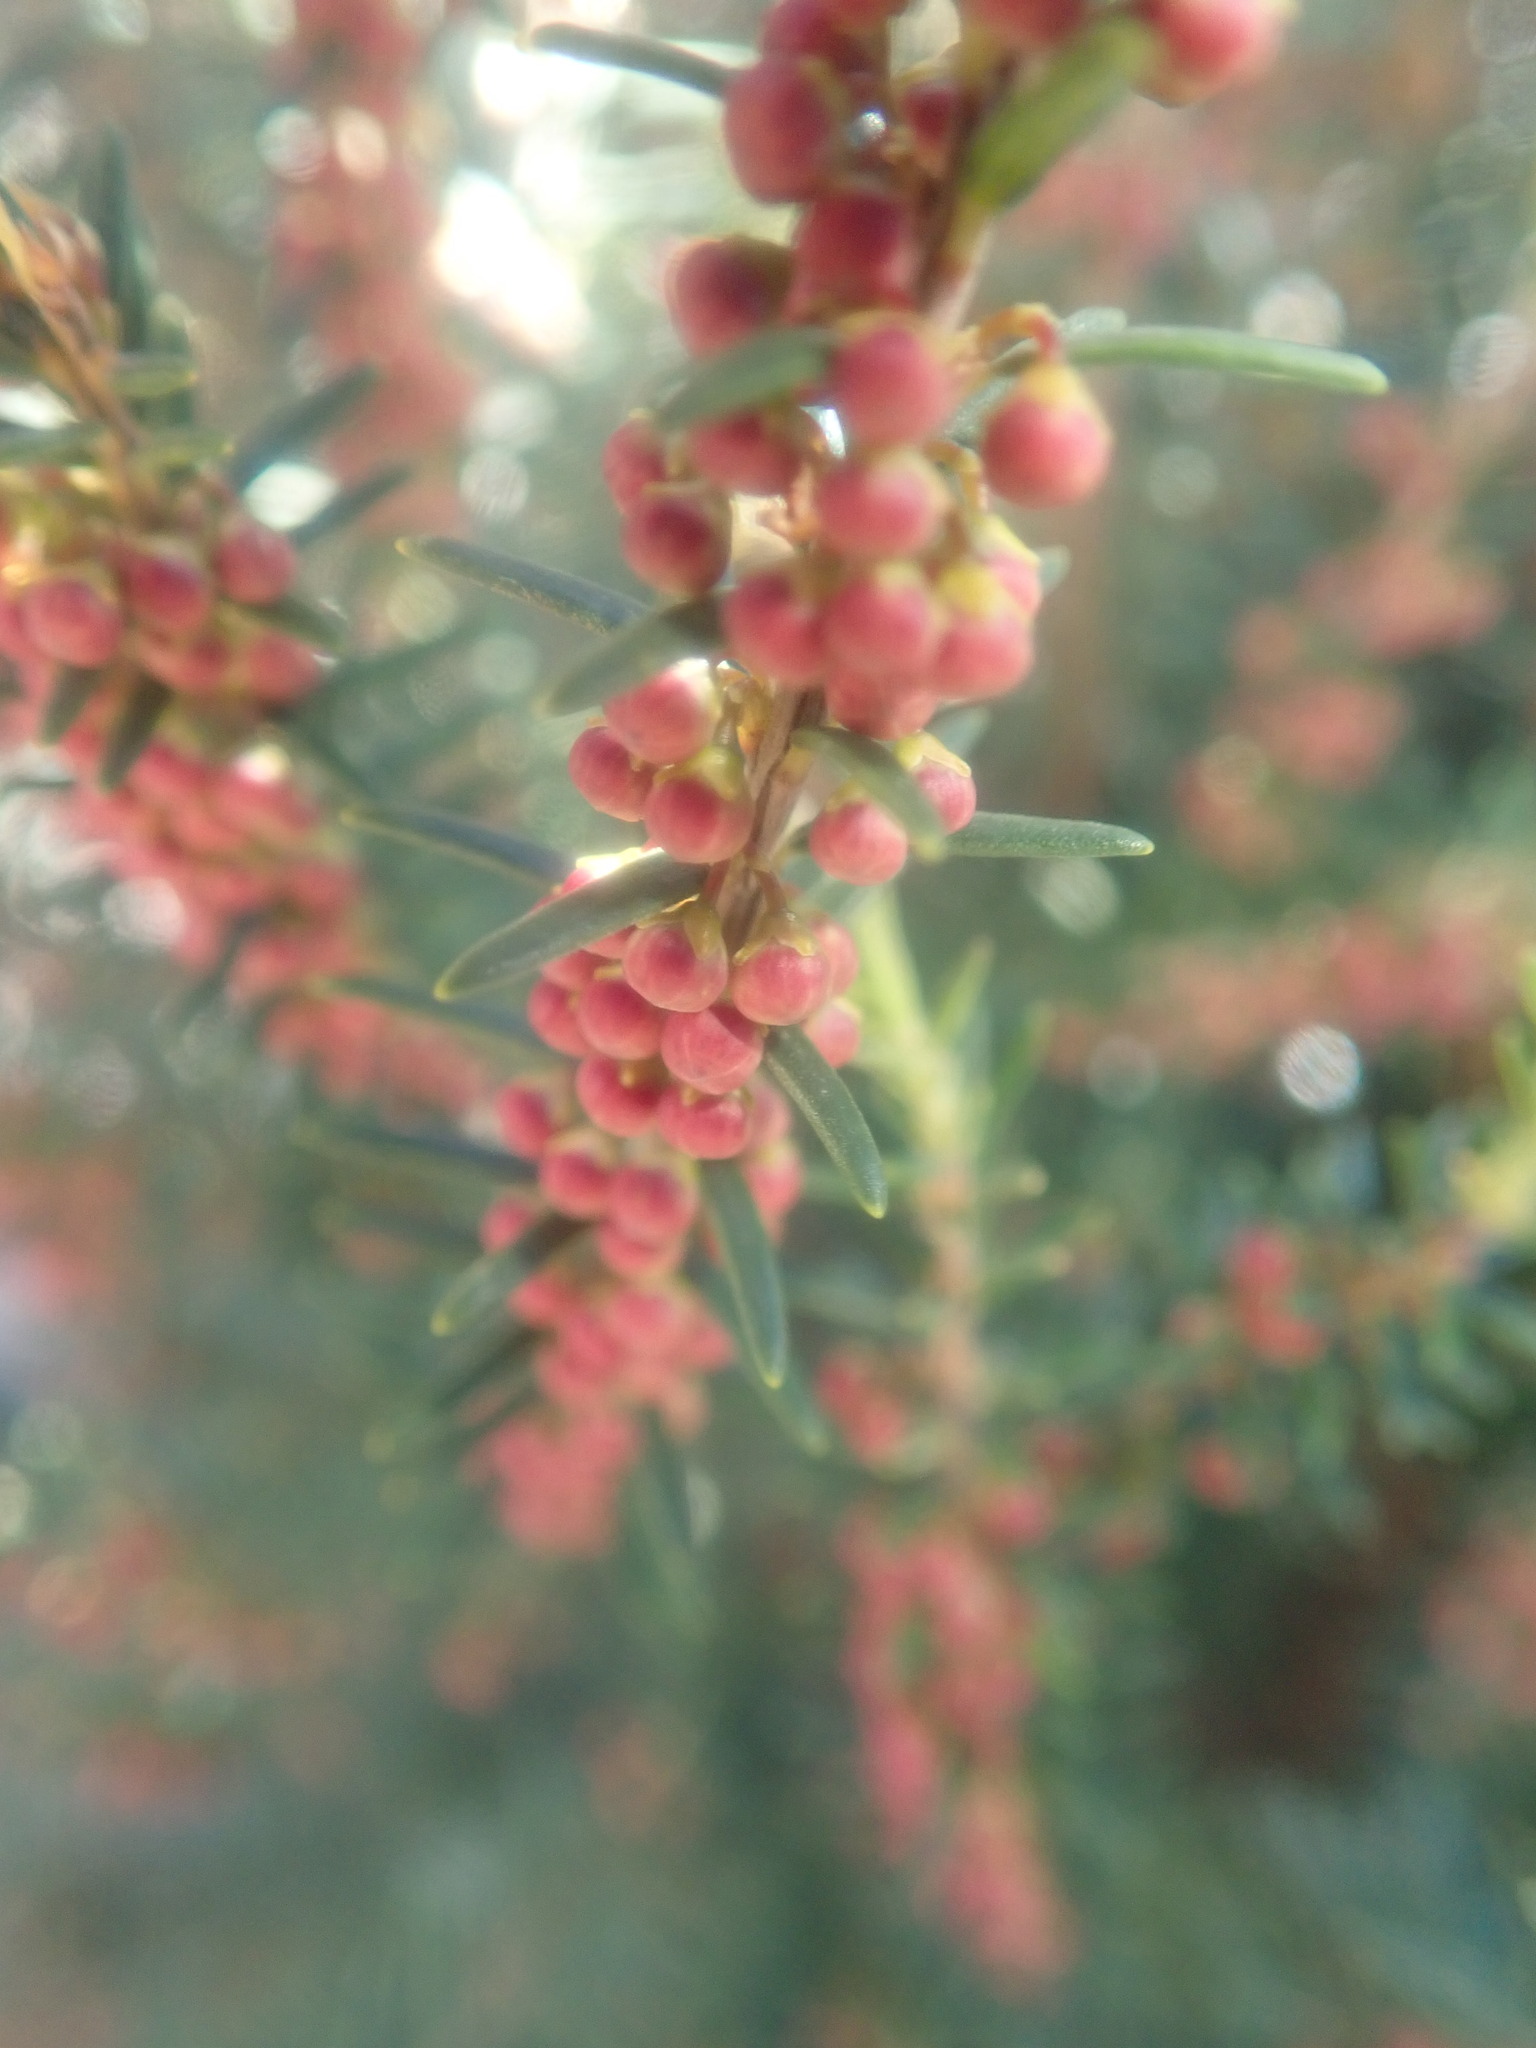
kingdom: Plantae
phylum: Tracheophyta
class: Magnoliopsida
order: Ericales
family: Ericaceae
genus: Erica
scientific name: Erica platycodon
